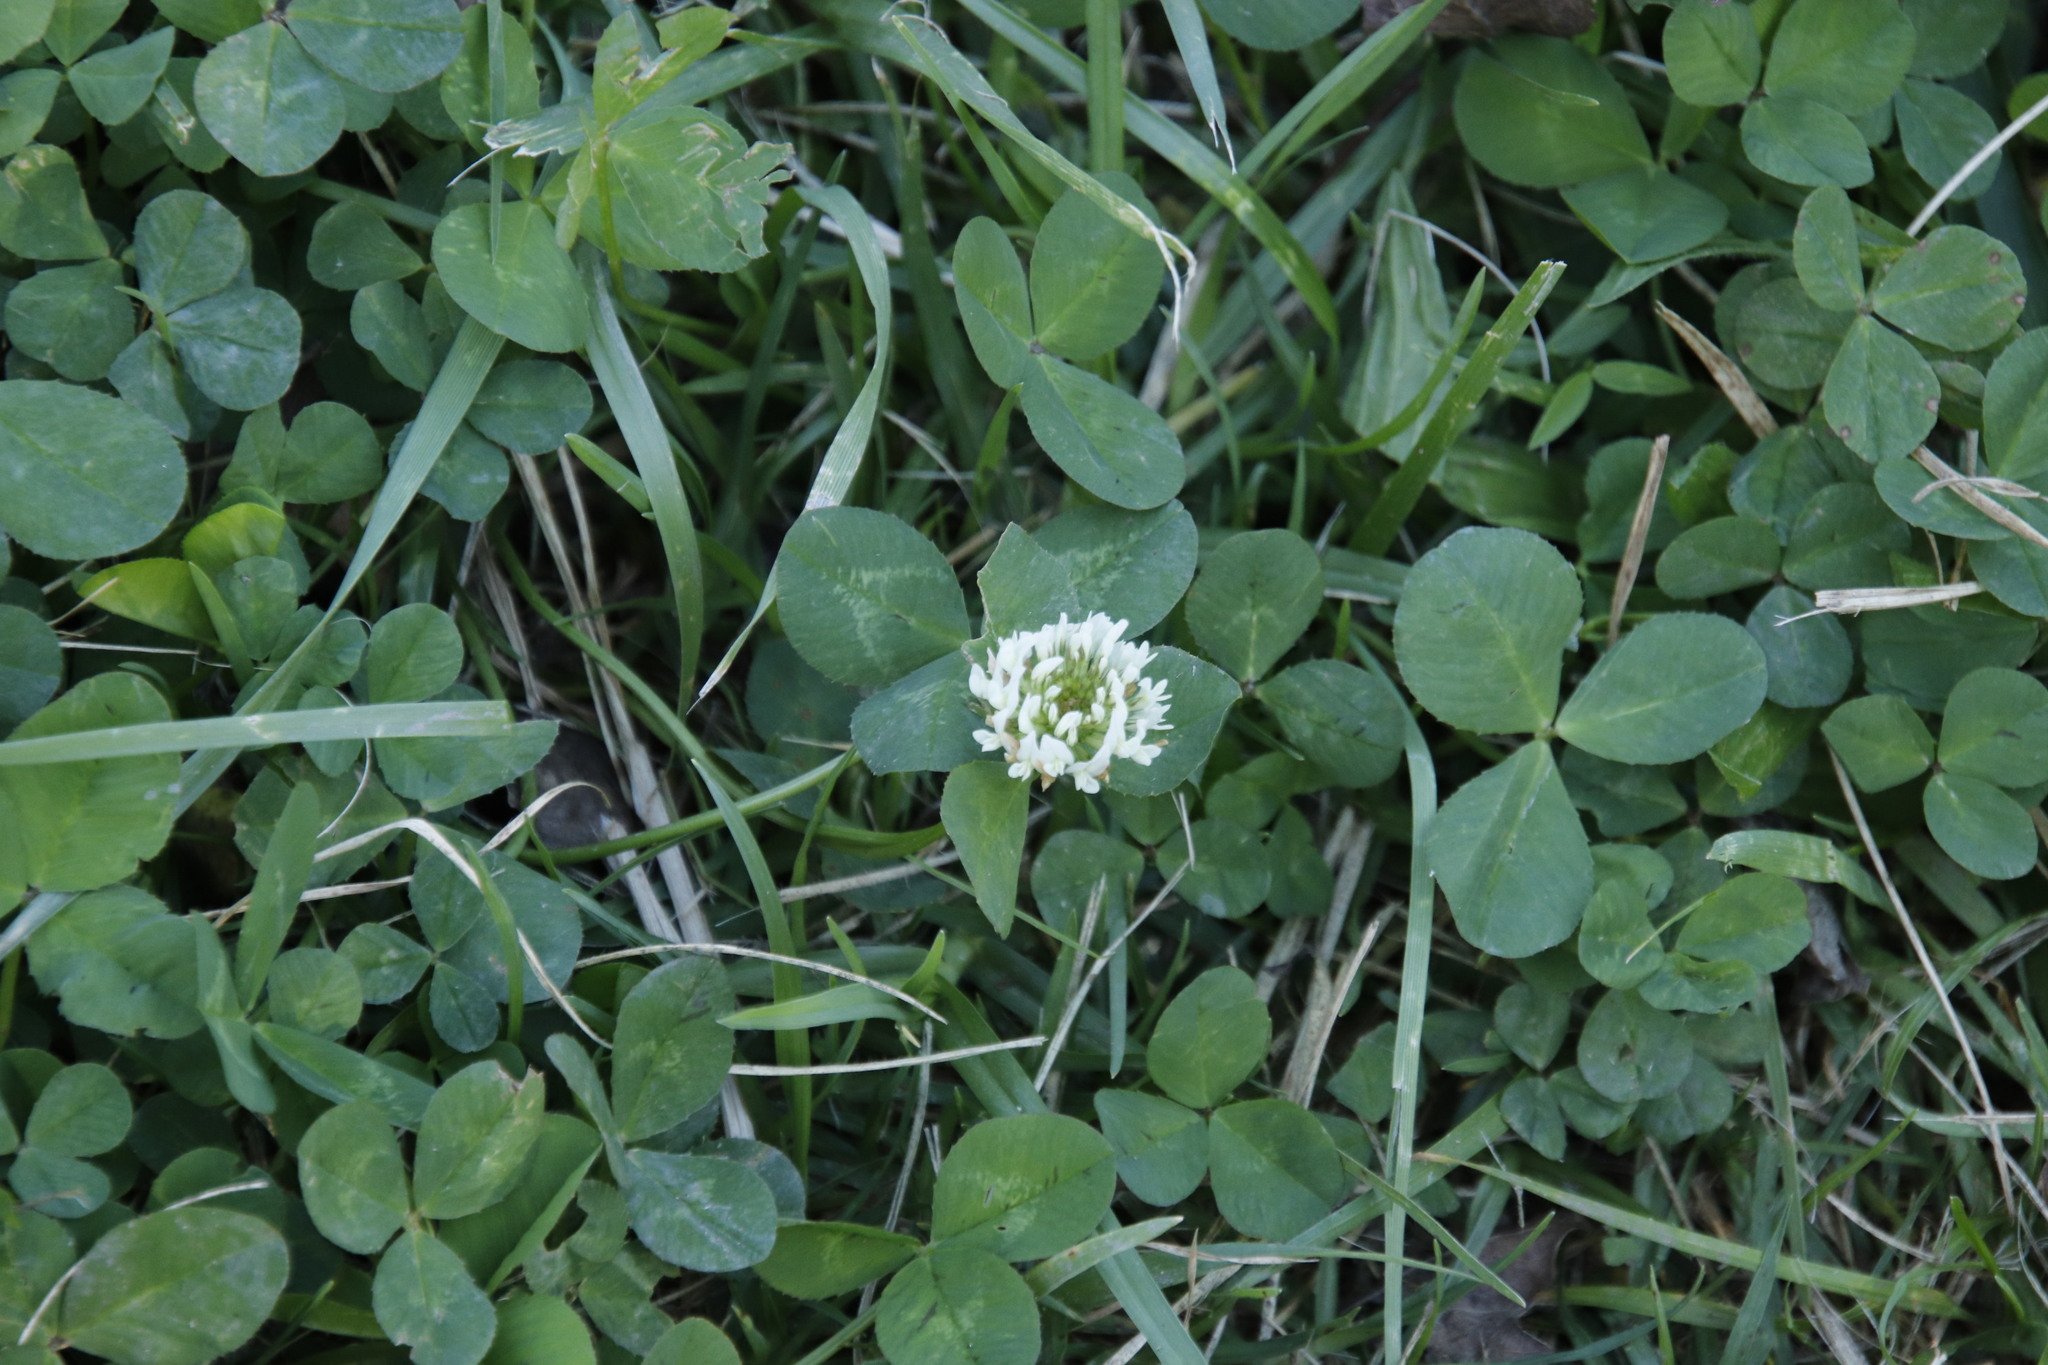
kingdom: Plantae
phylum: Tracheophyta
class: Magnoliopsida
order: Fabales
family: Fabaceae
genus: Trifolium
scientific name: Trifolium repens
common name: White clover
